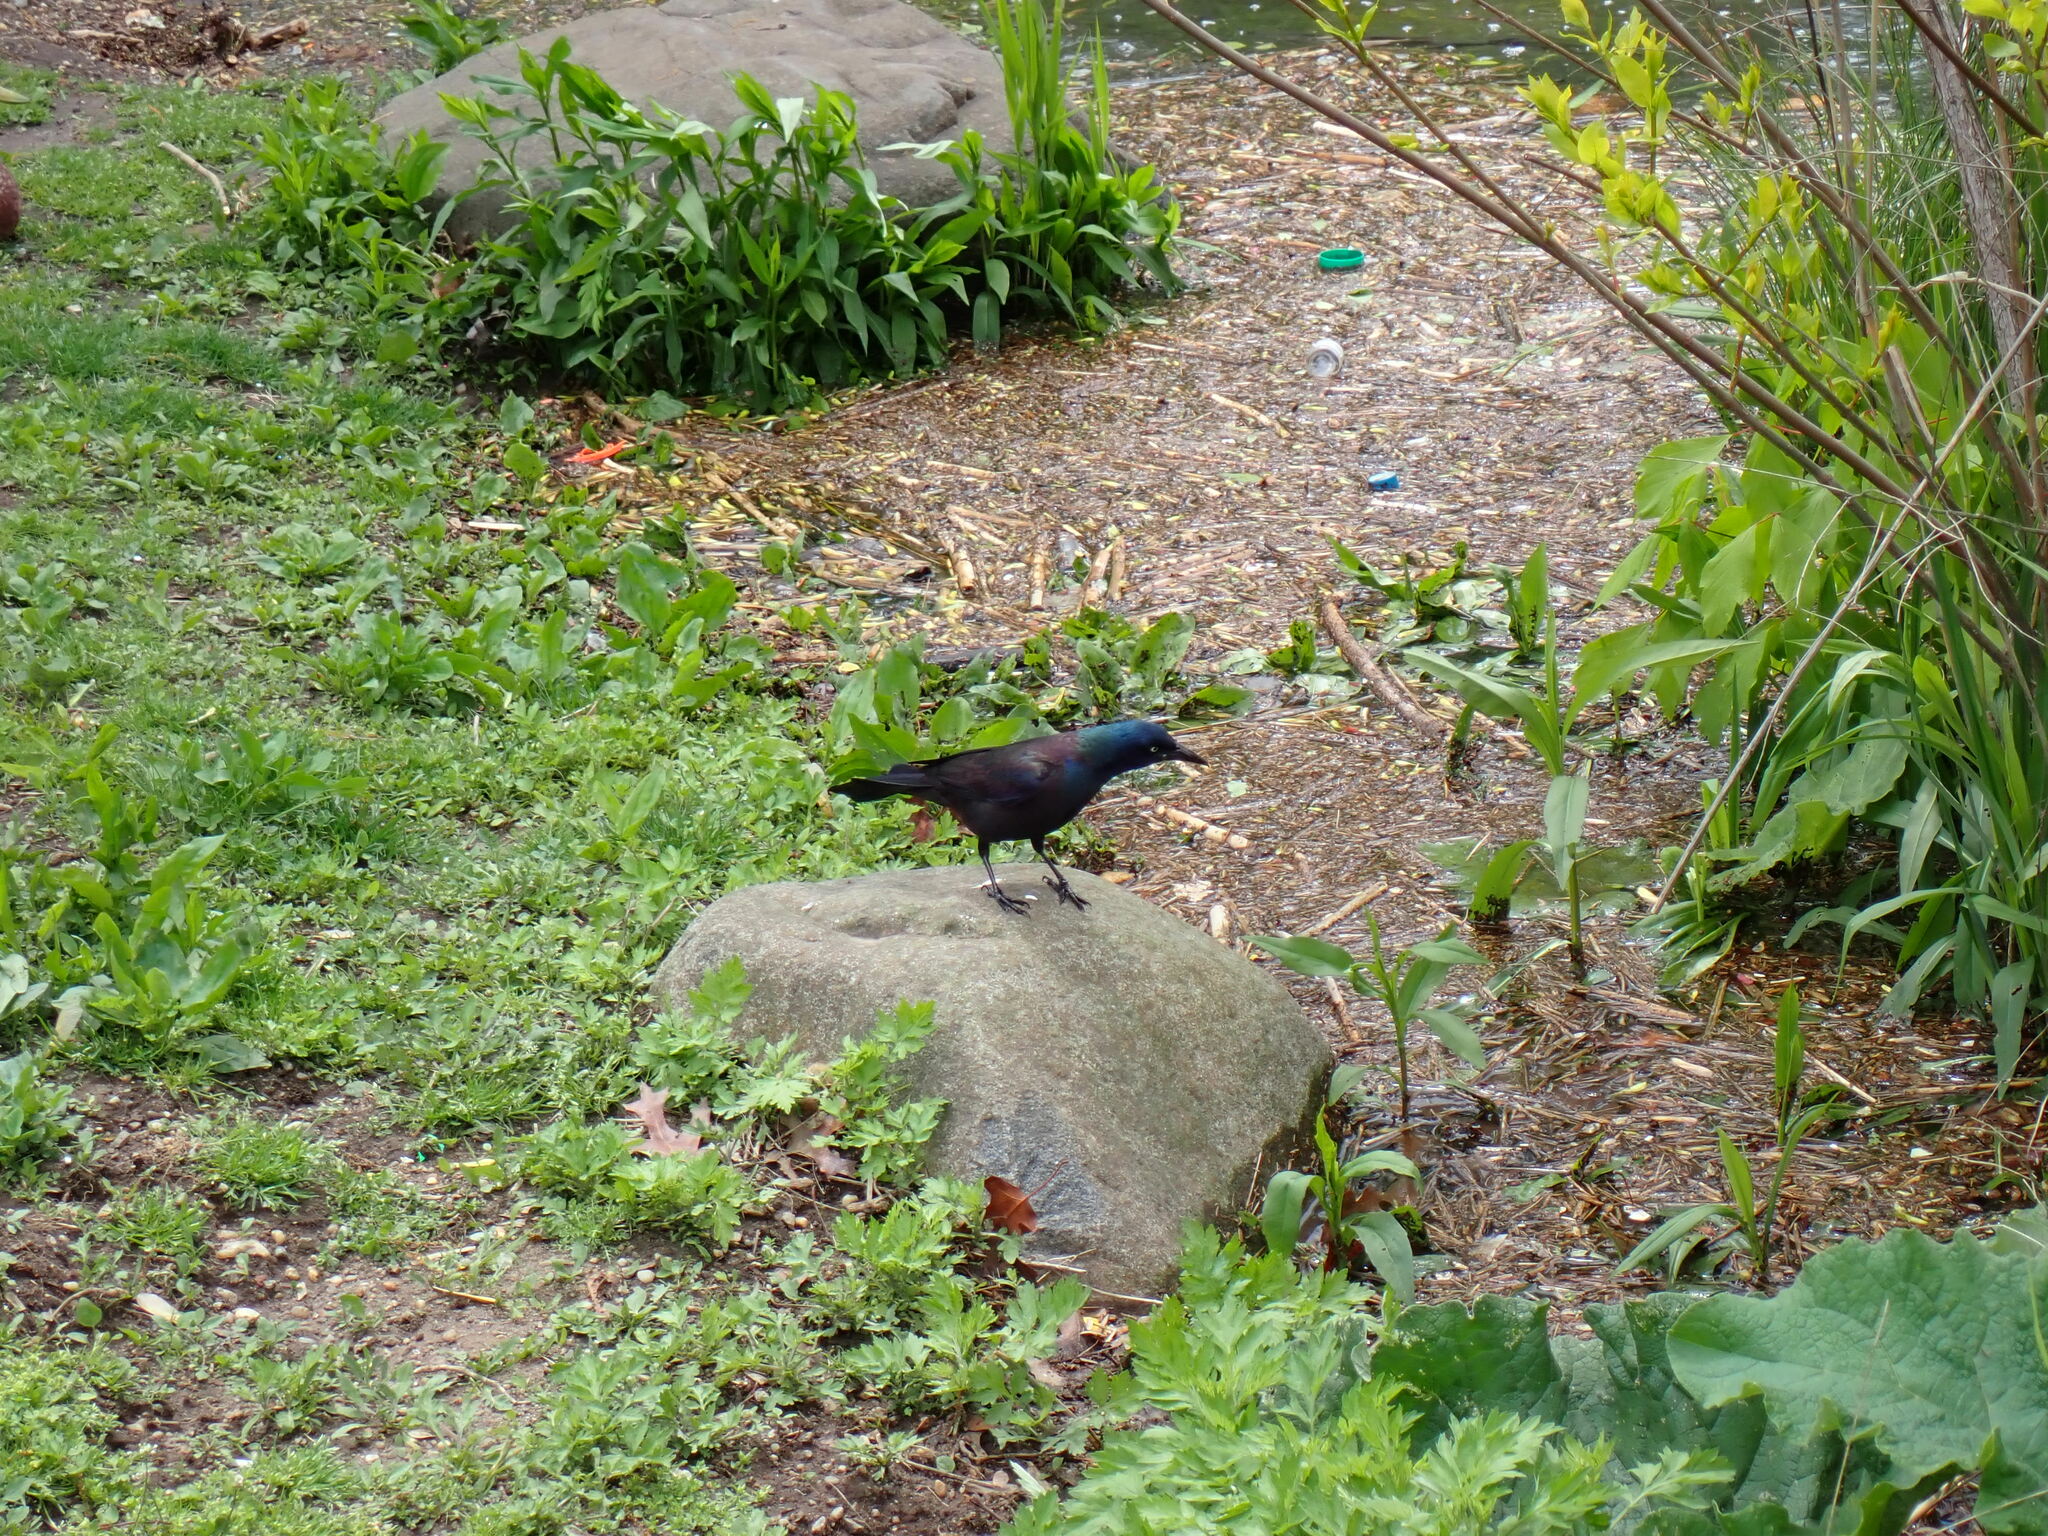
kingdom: Animalia
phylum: Chordata
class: Aves
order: Passeriformes
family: Icteridae
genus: Quiscalus
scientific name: Quiscalus quiscula
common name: Common grackle
